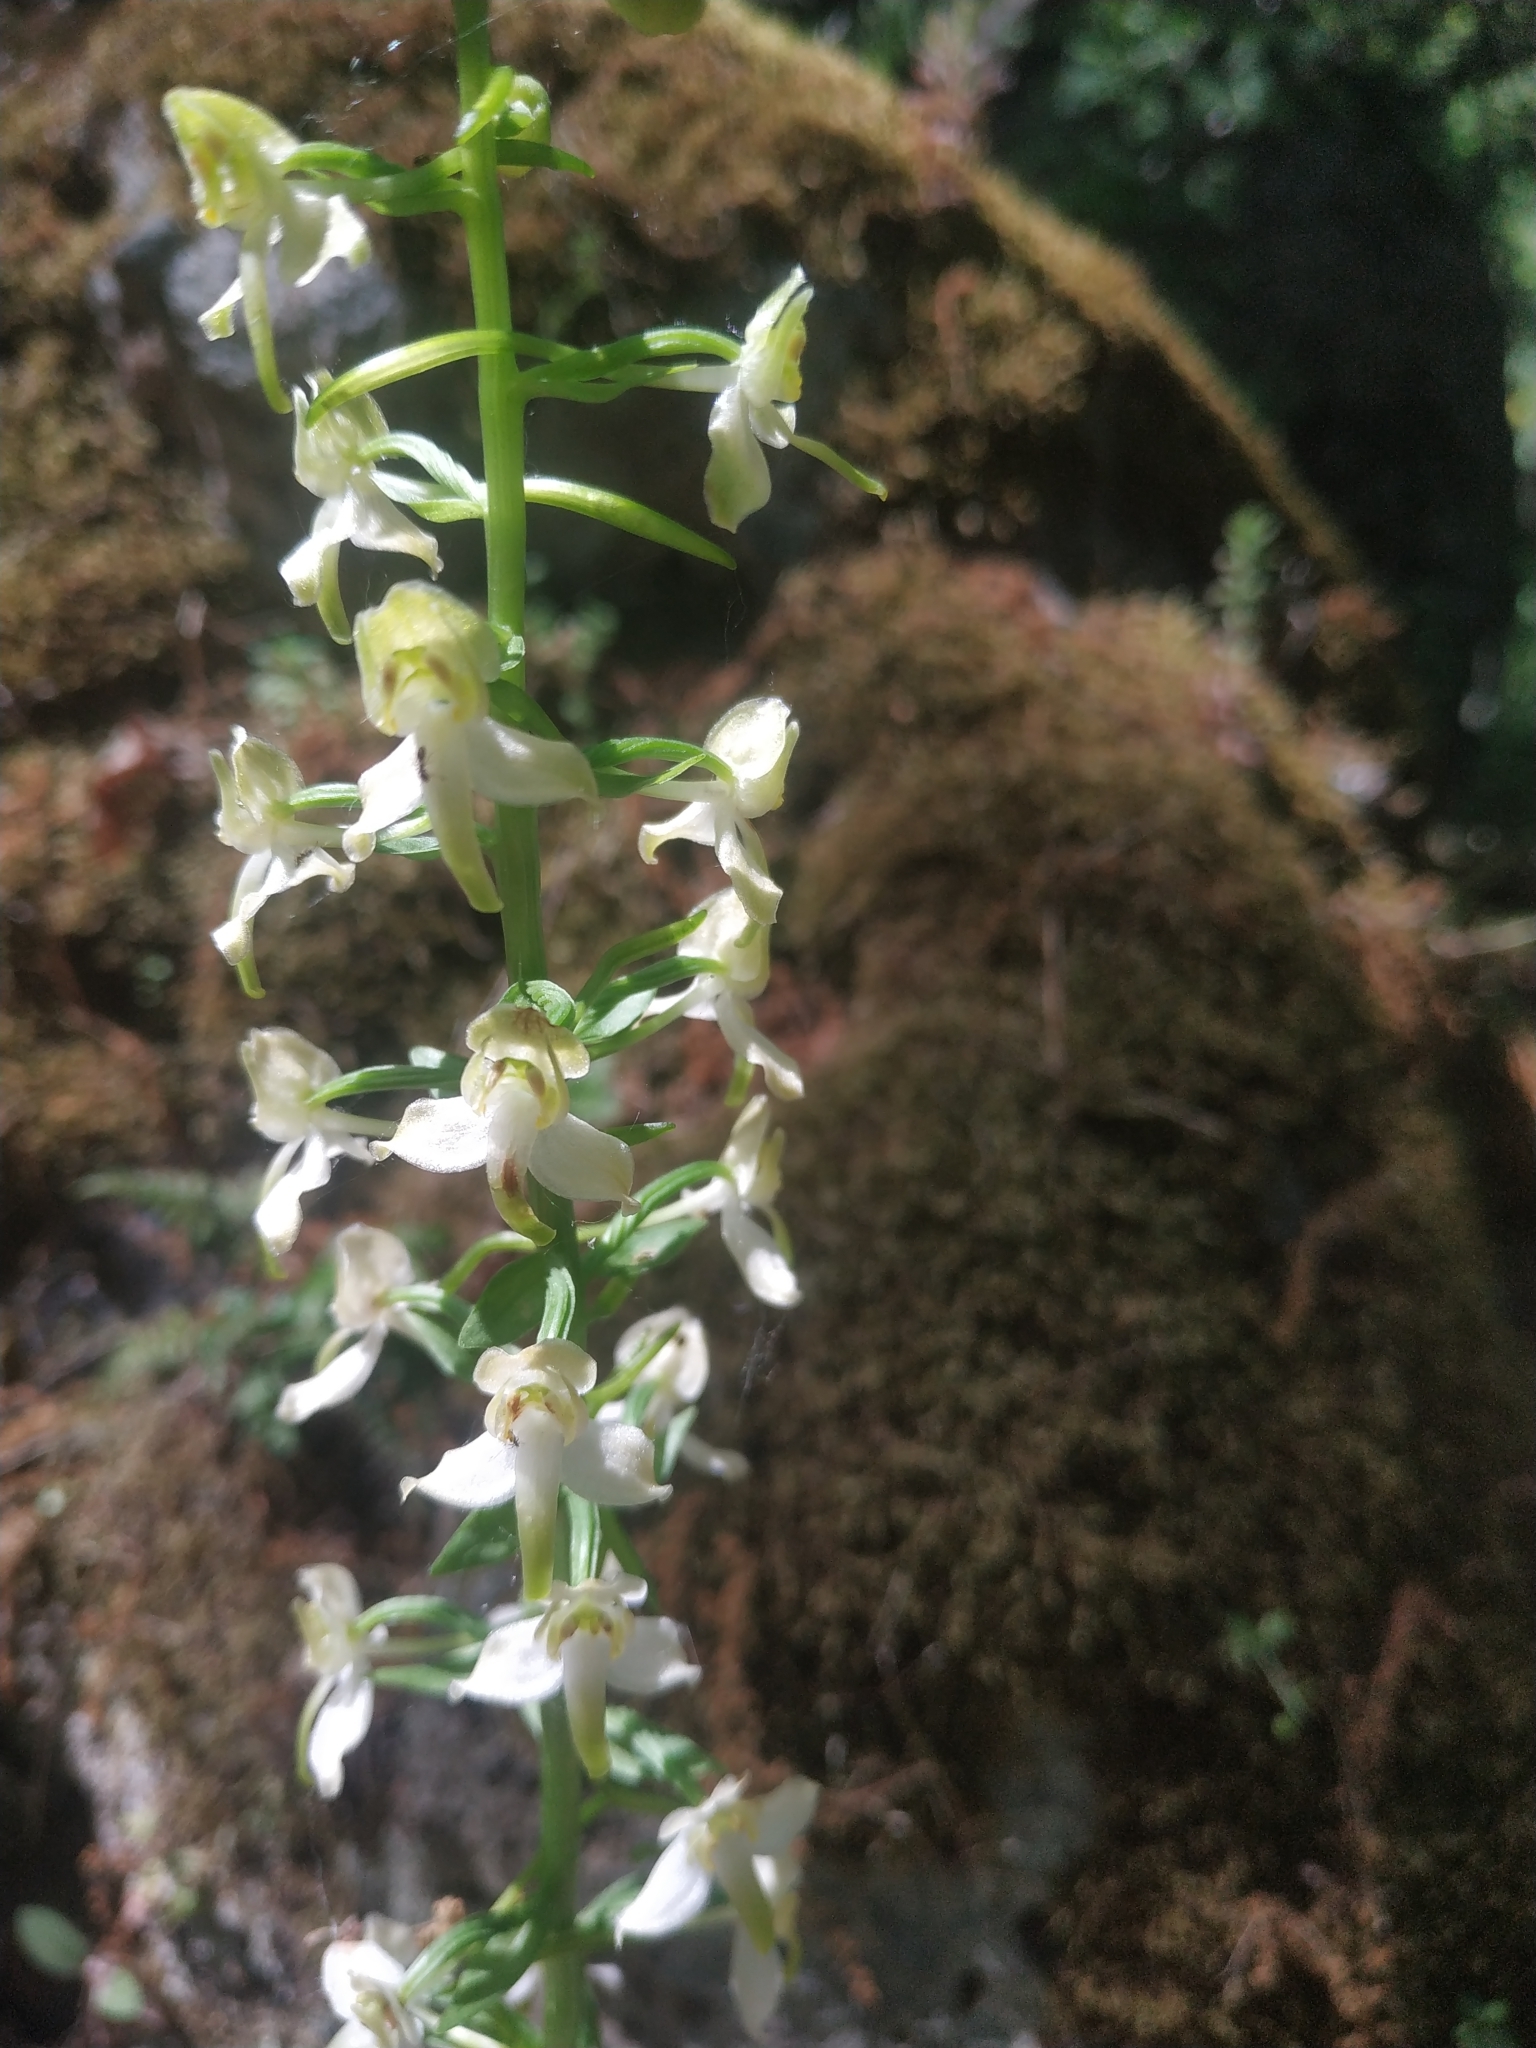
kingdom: Plantae
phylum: Tracheophyta
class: Liliopsida
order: Asparagales
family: Orchidaceae
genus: Platanthera
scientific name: Platanthera chlorantha
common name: Greater butterfly-orchid
